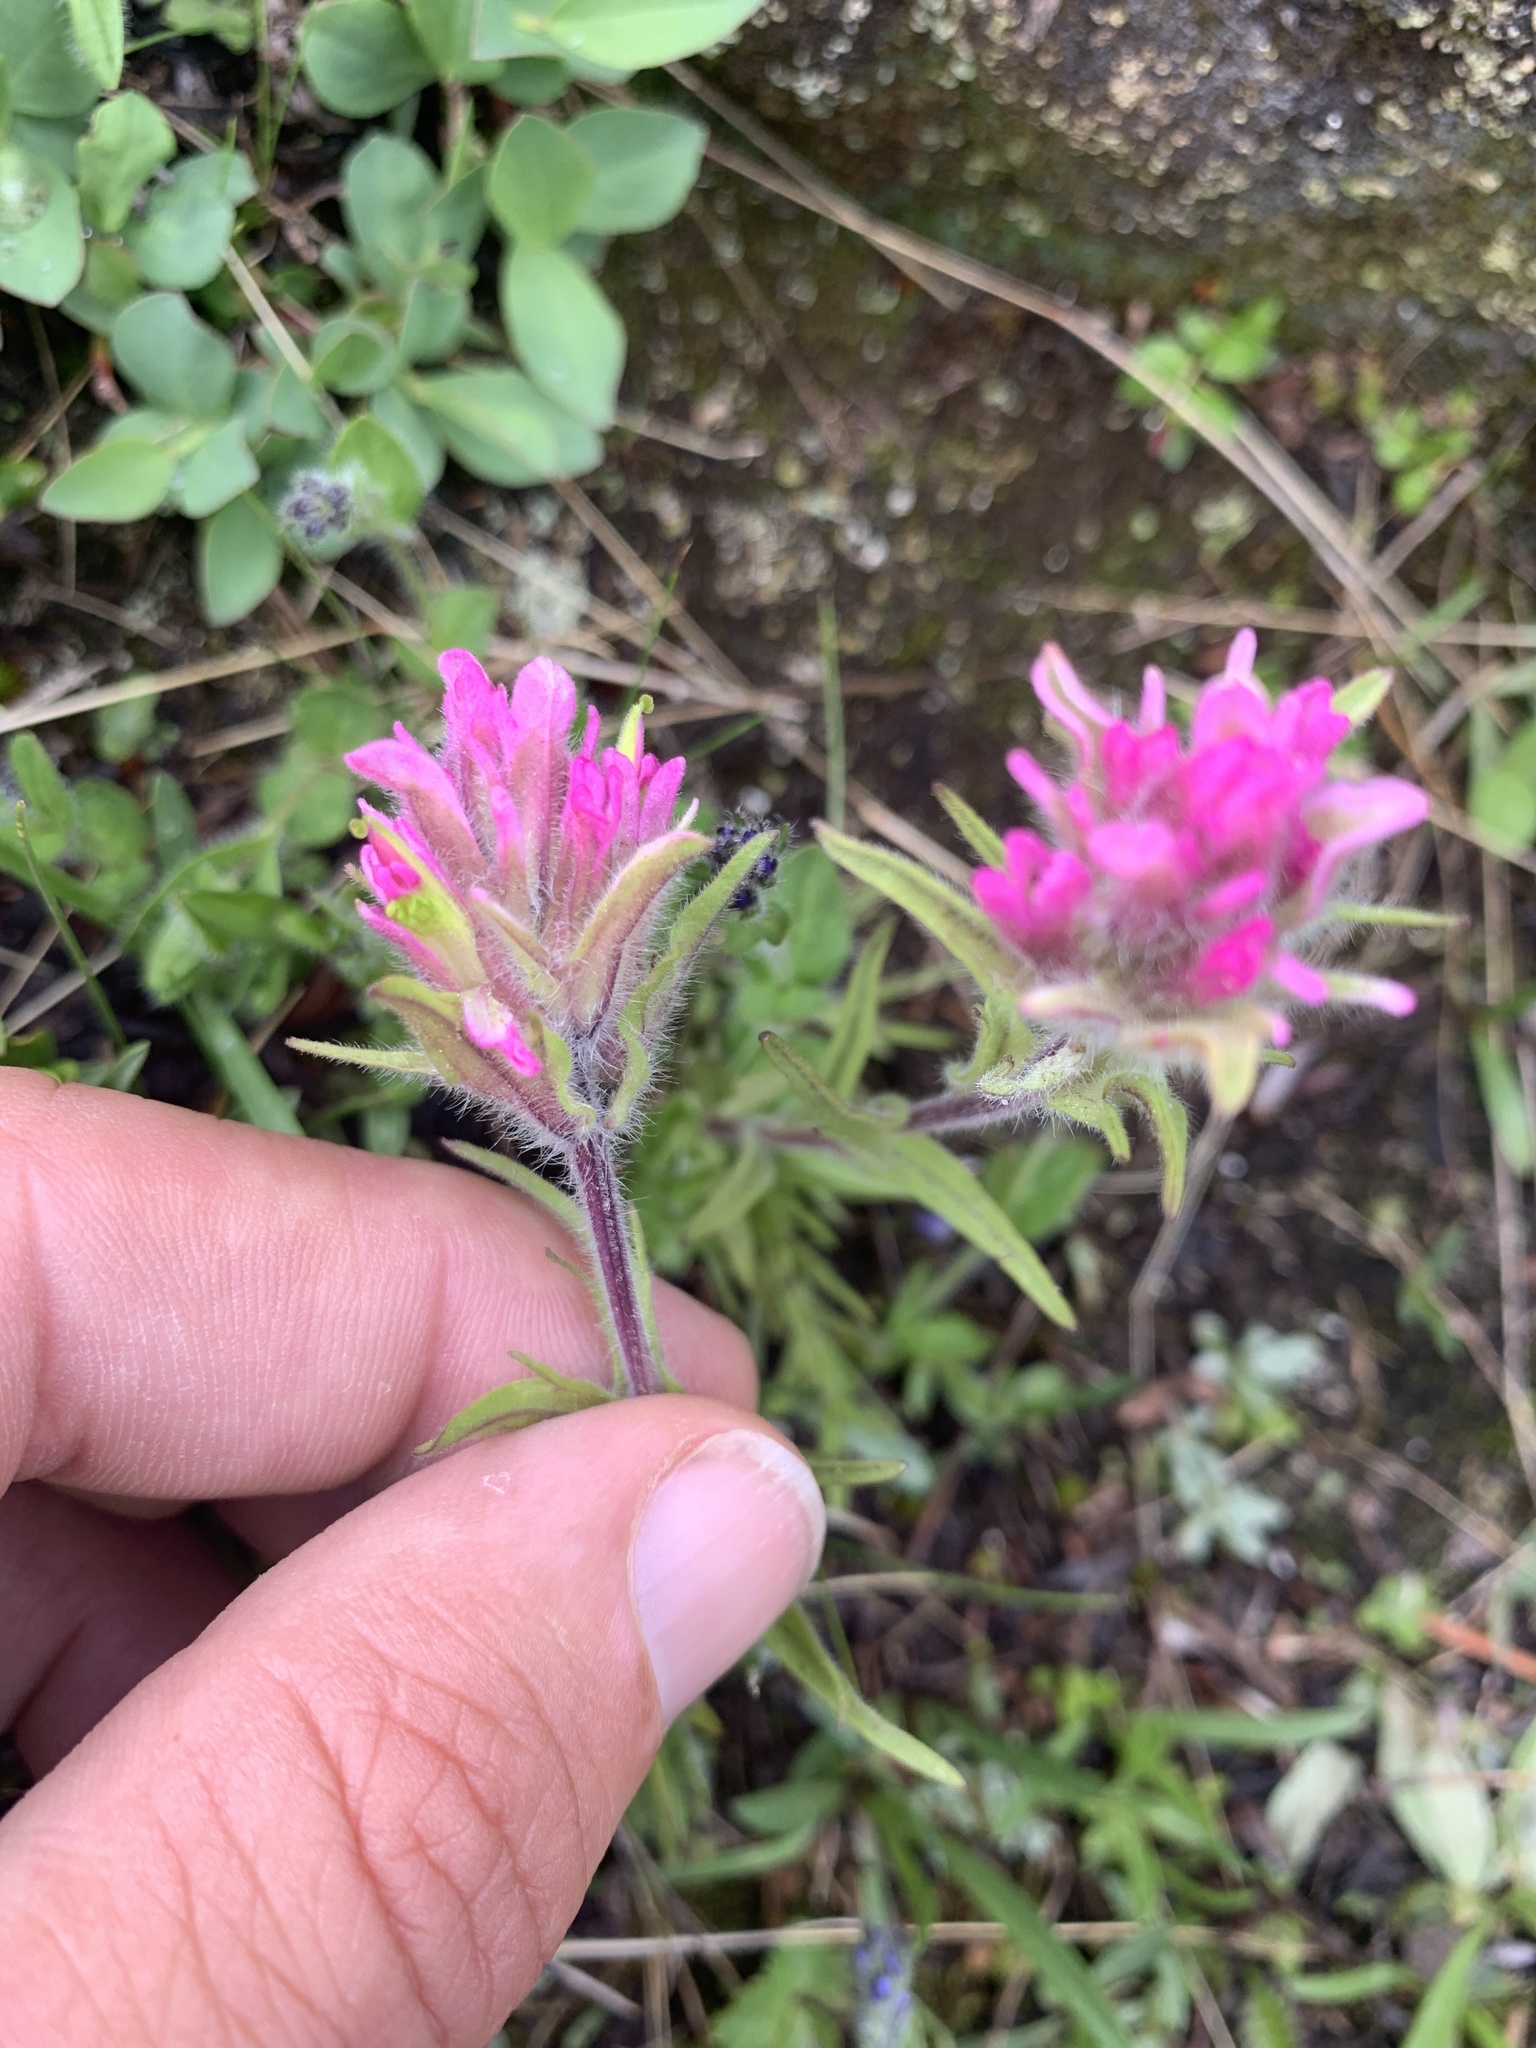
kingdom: Plantae
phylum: Tracheophyta
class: Magnoliopsida
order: Lamiales
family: Orobanchaceae
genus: Castilleja
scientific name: Castilleja lemmonii
